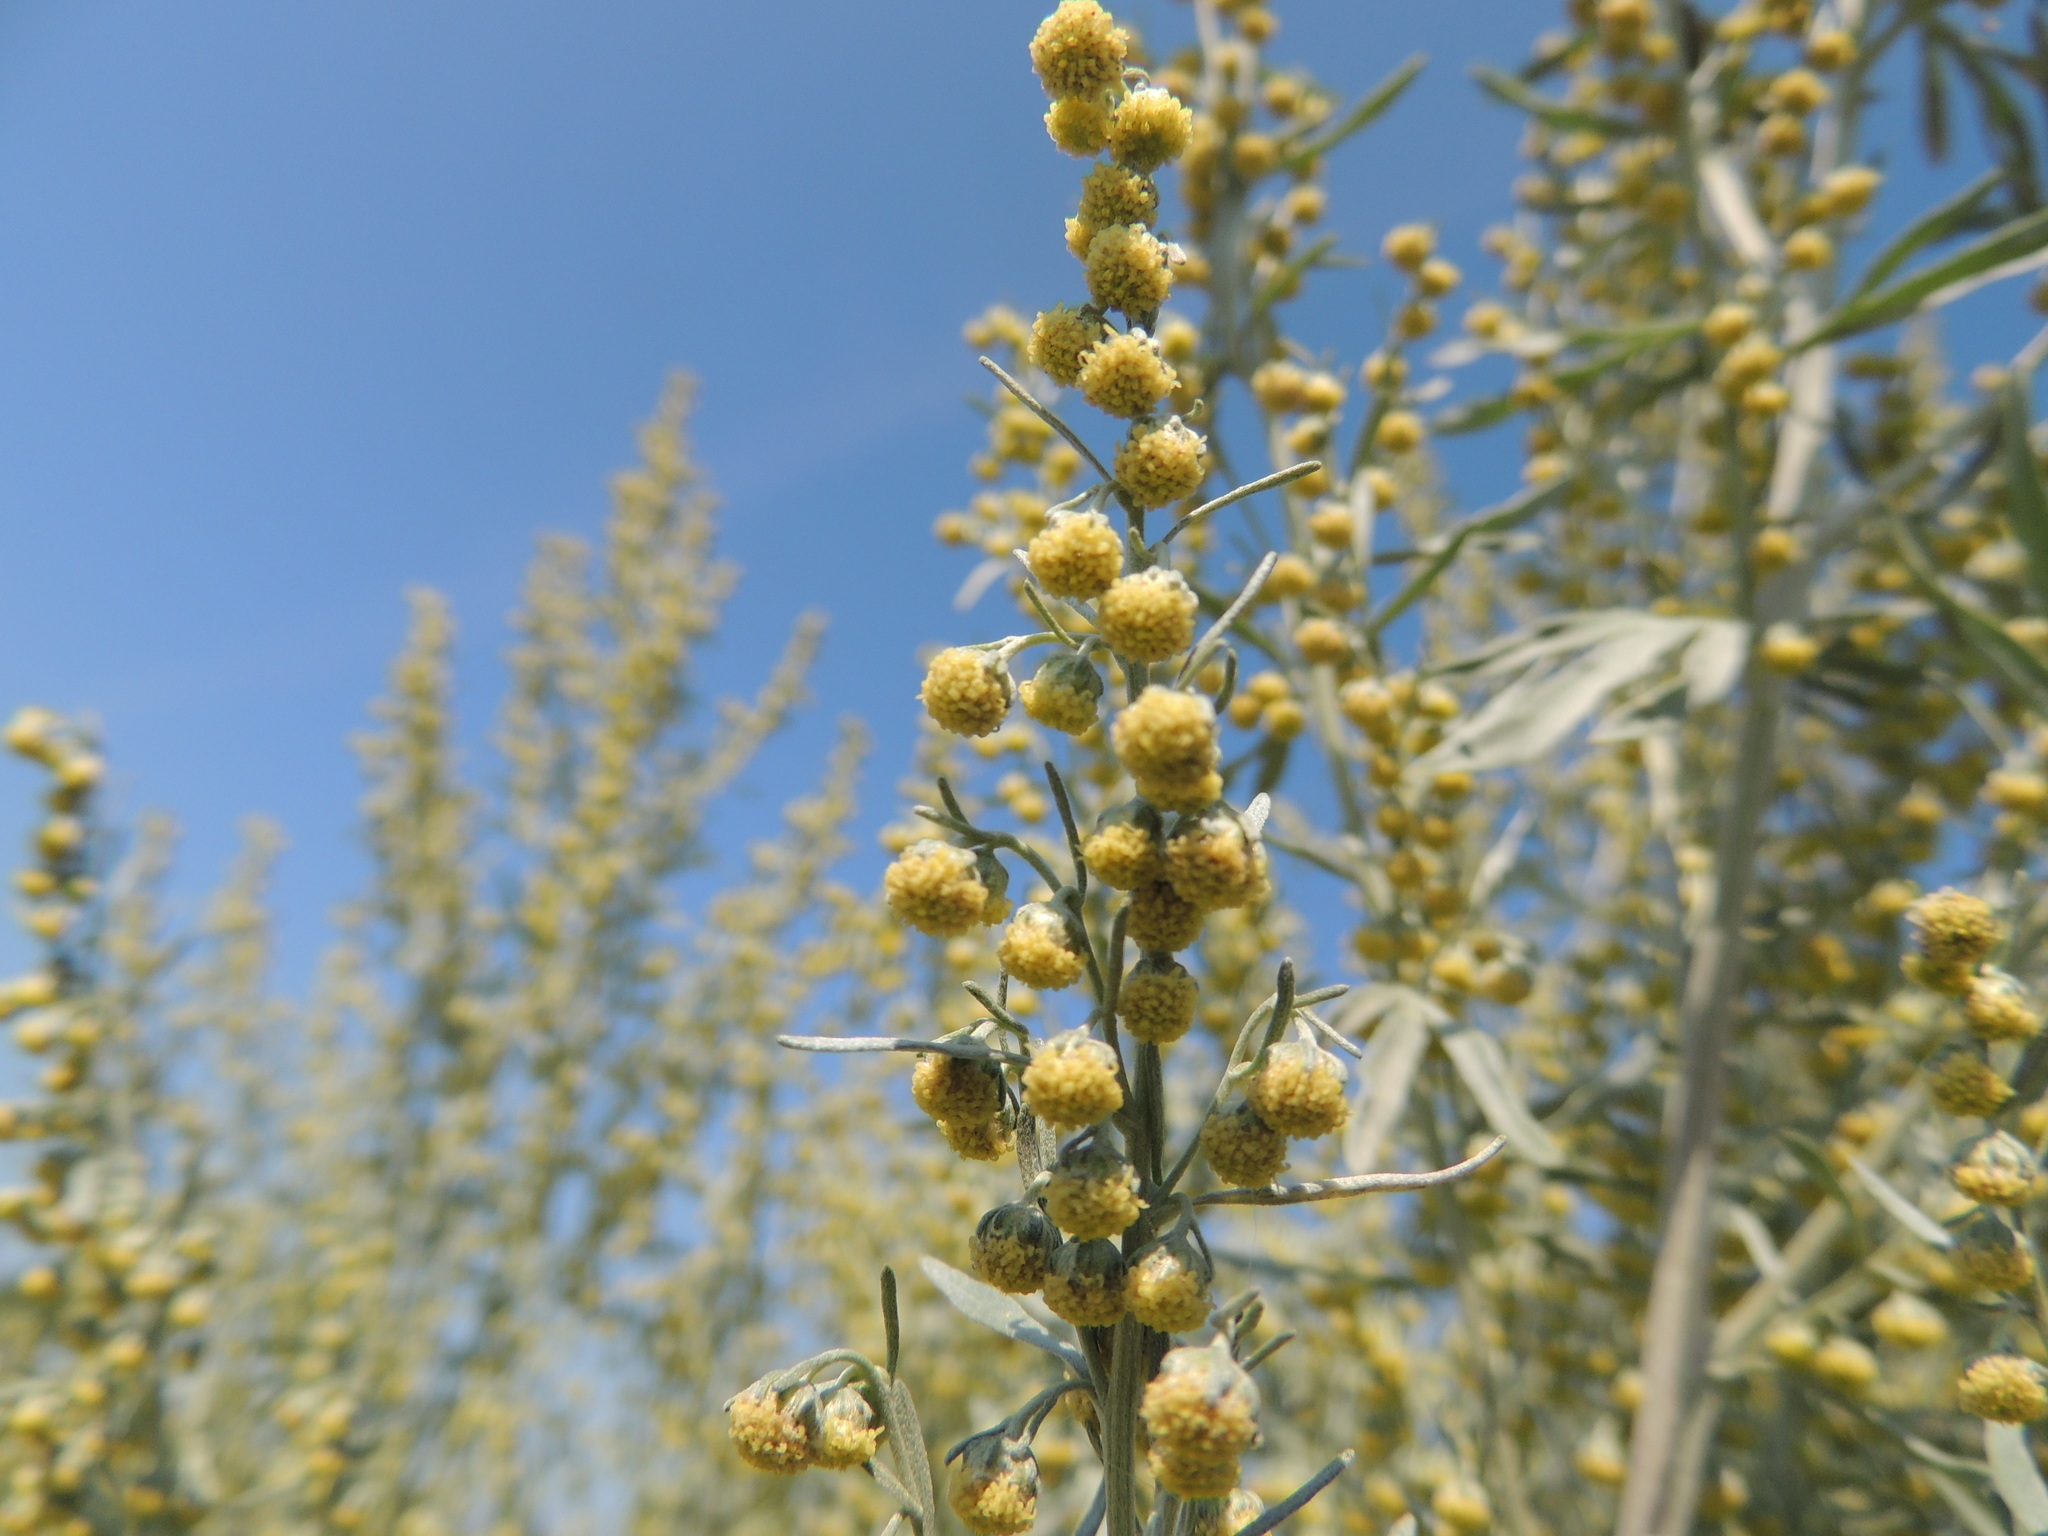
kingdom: Plantae
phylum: Tracheophyta
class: Magnoliopsida
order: Asterales
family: Asteraceae
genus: Artemisia
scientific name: Artemisia absinthium
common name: Wormwood
